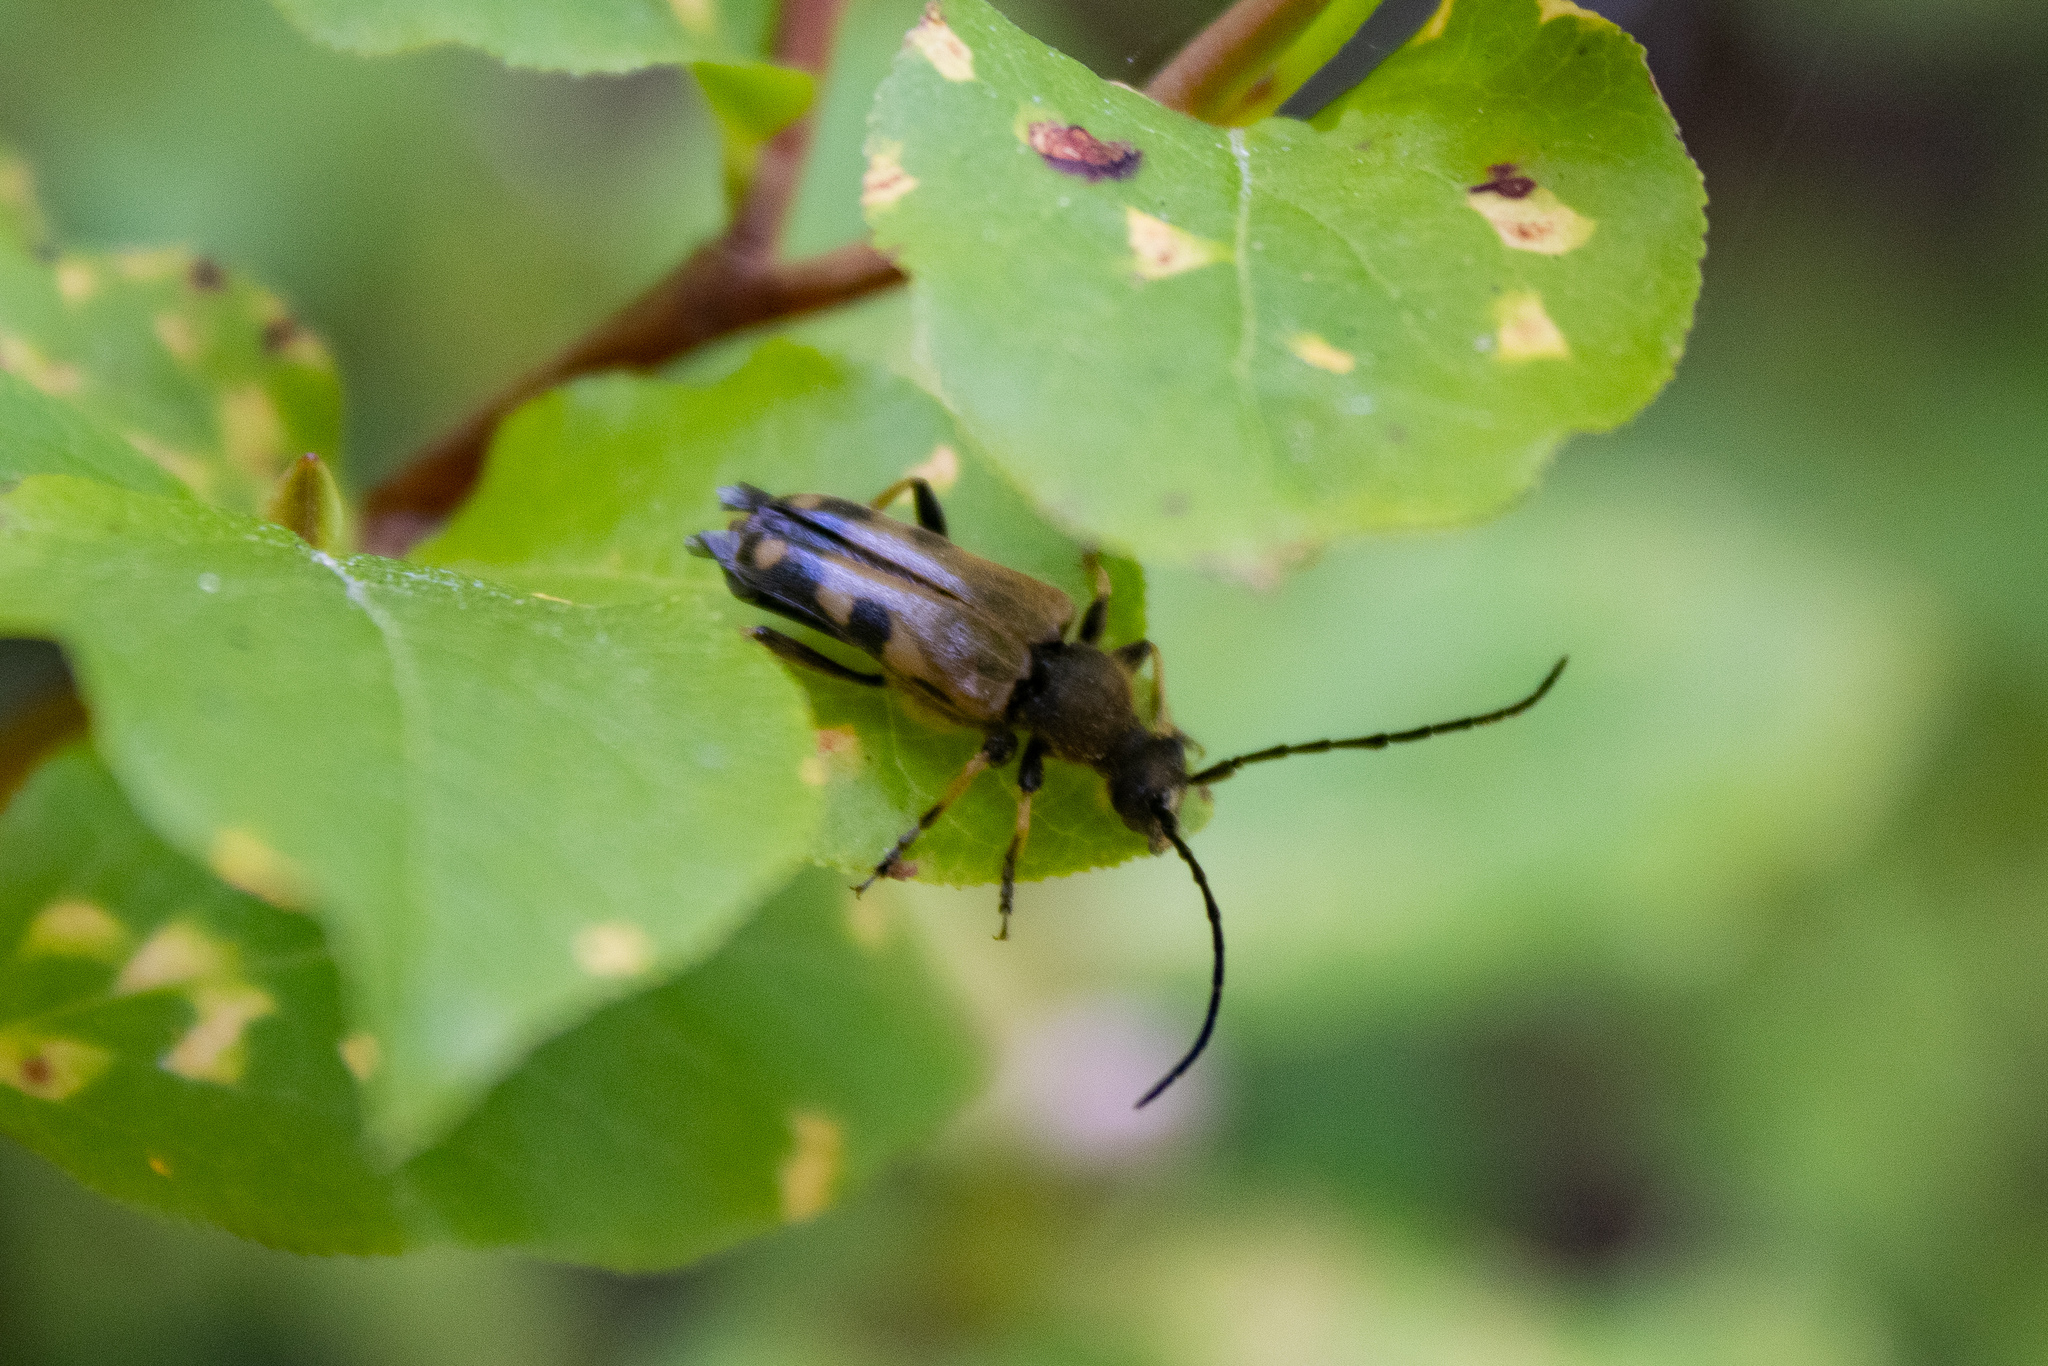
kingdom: Animalia
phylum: Arthropoda
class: Insecta
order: Coleoptera
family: Cerambycidae
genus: Xestoleptura
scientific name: Xestoleptura tibialis
